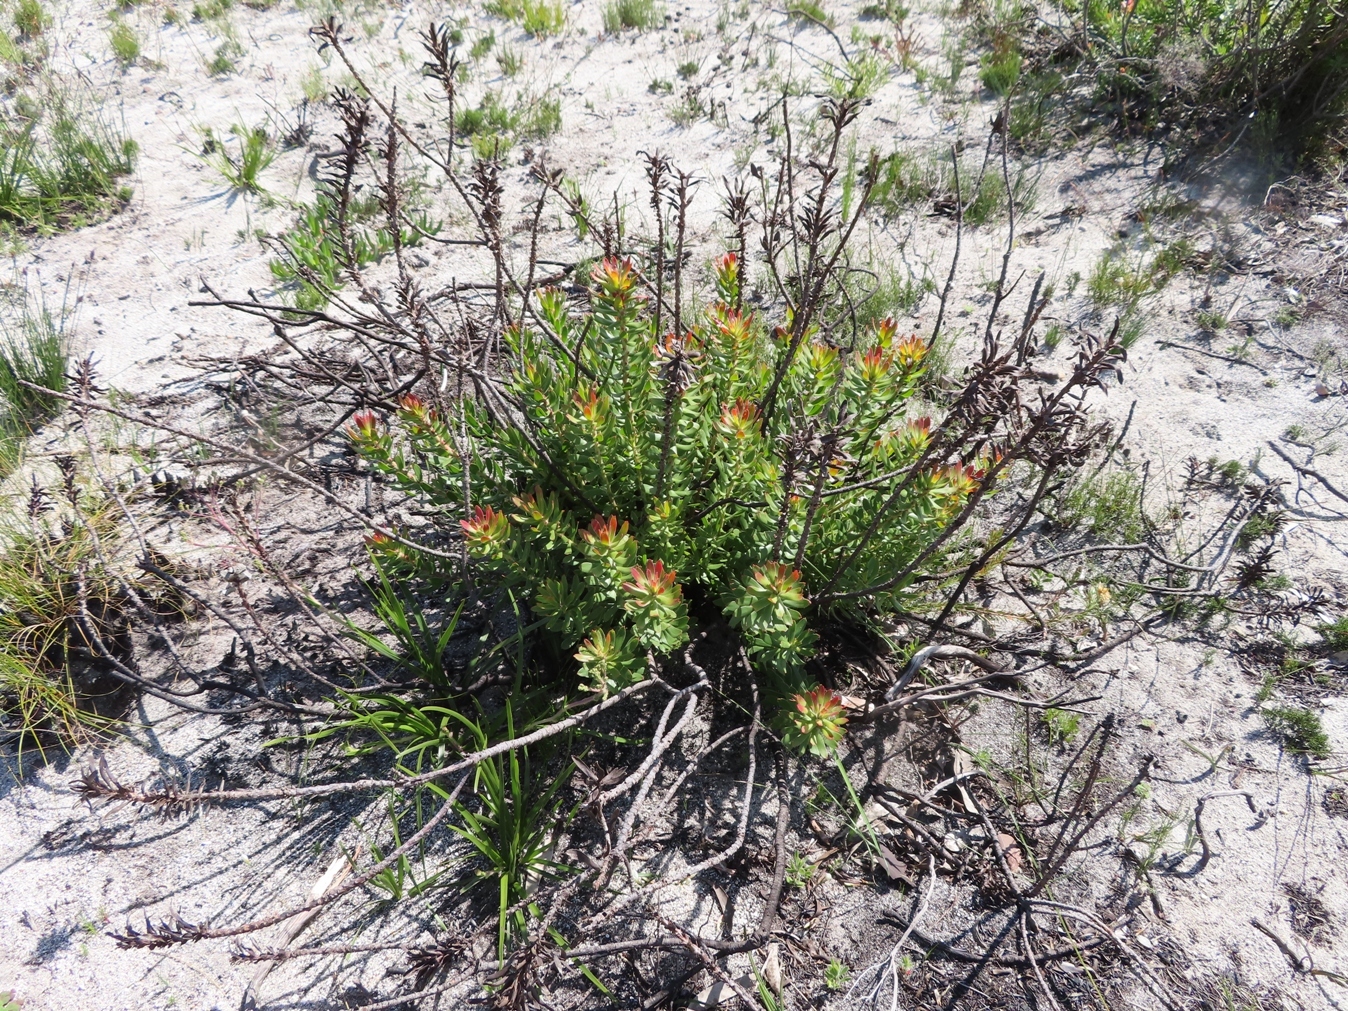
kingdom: Plantae
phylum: Tracheophyta
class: Magnoliopsida
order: Proteales
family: Proteaceae
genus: Mimetes
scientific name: Mimetes cucullatus
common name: Common pagoda
